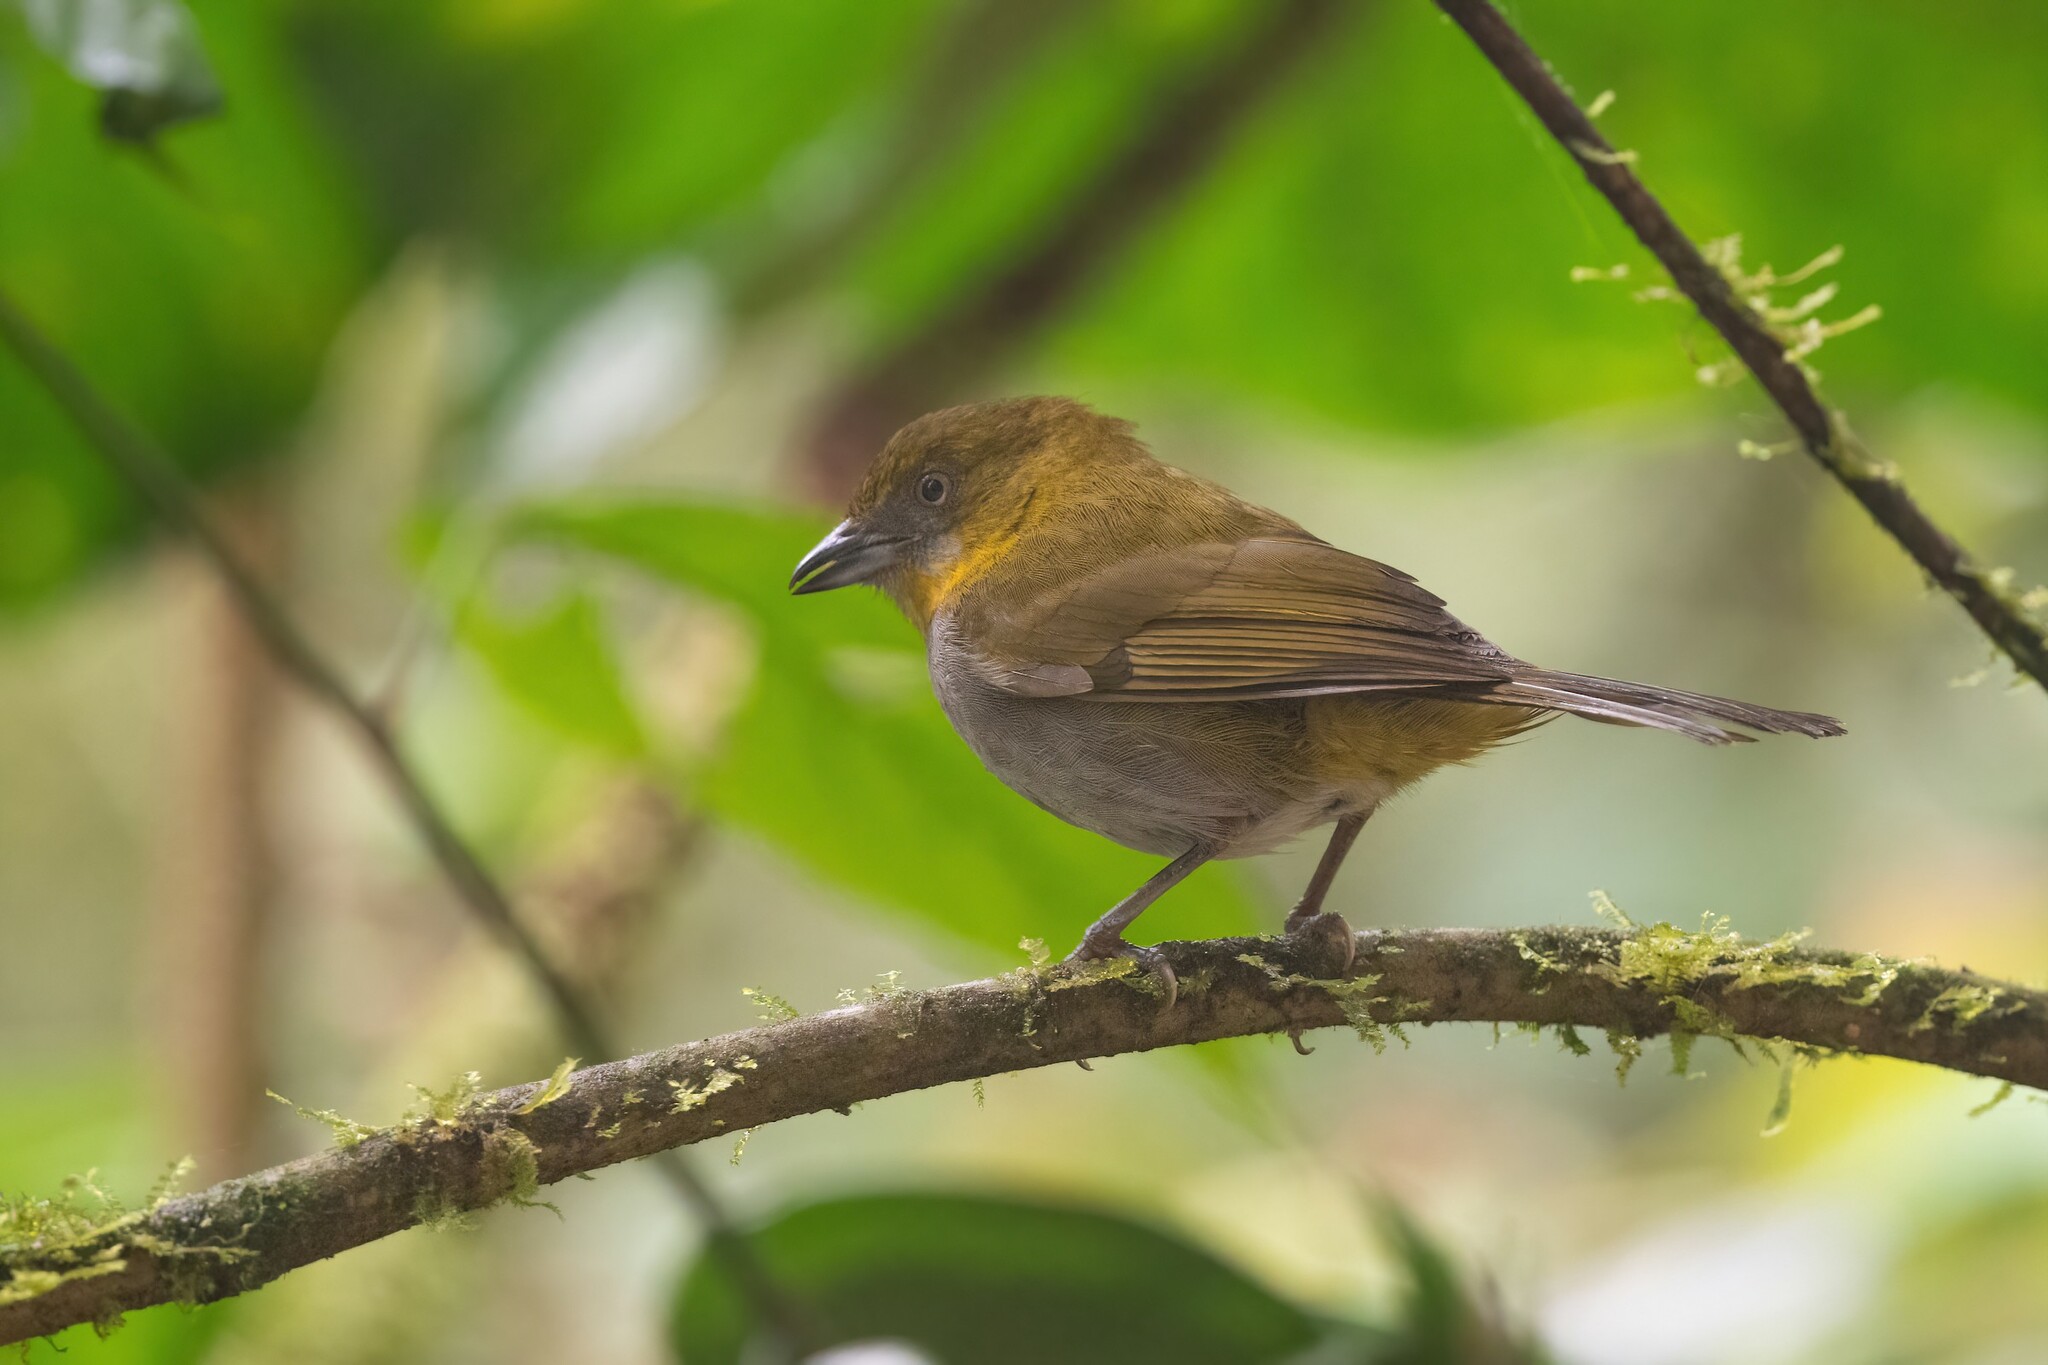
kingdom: Animalia
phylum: Chordata
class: Aves
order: Passeriformes
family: Passerellidae
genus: Chlorospingus
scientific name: Chlorospingus flavigularis
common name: Yellow-throated bush-tanager
